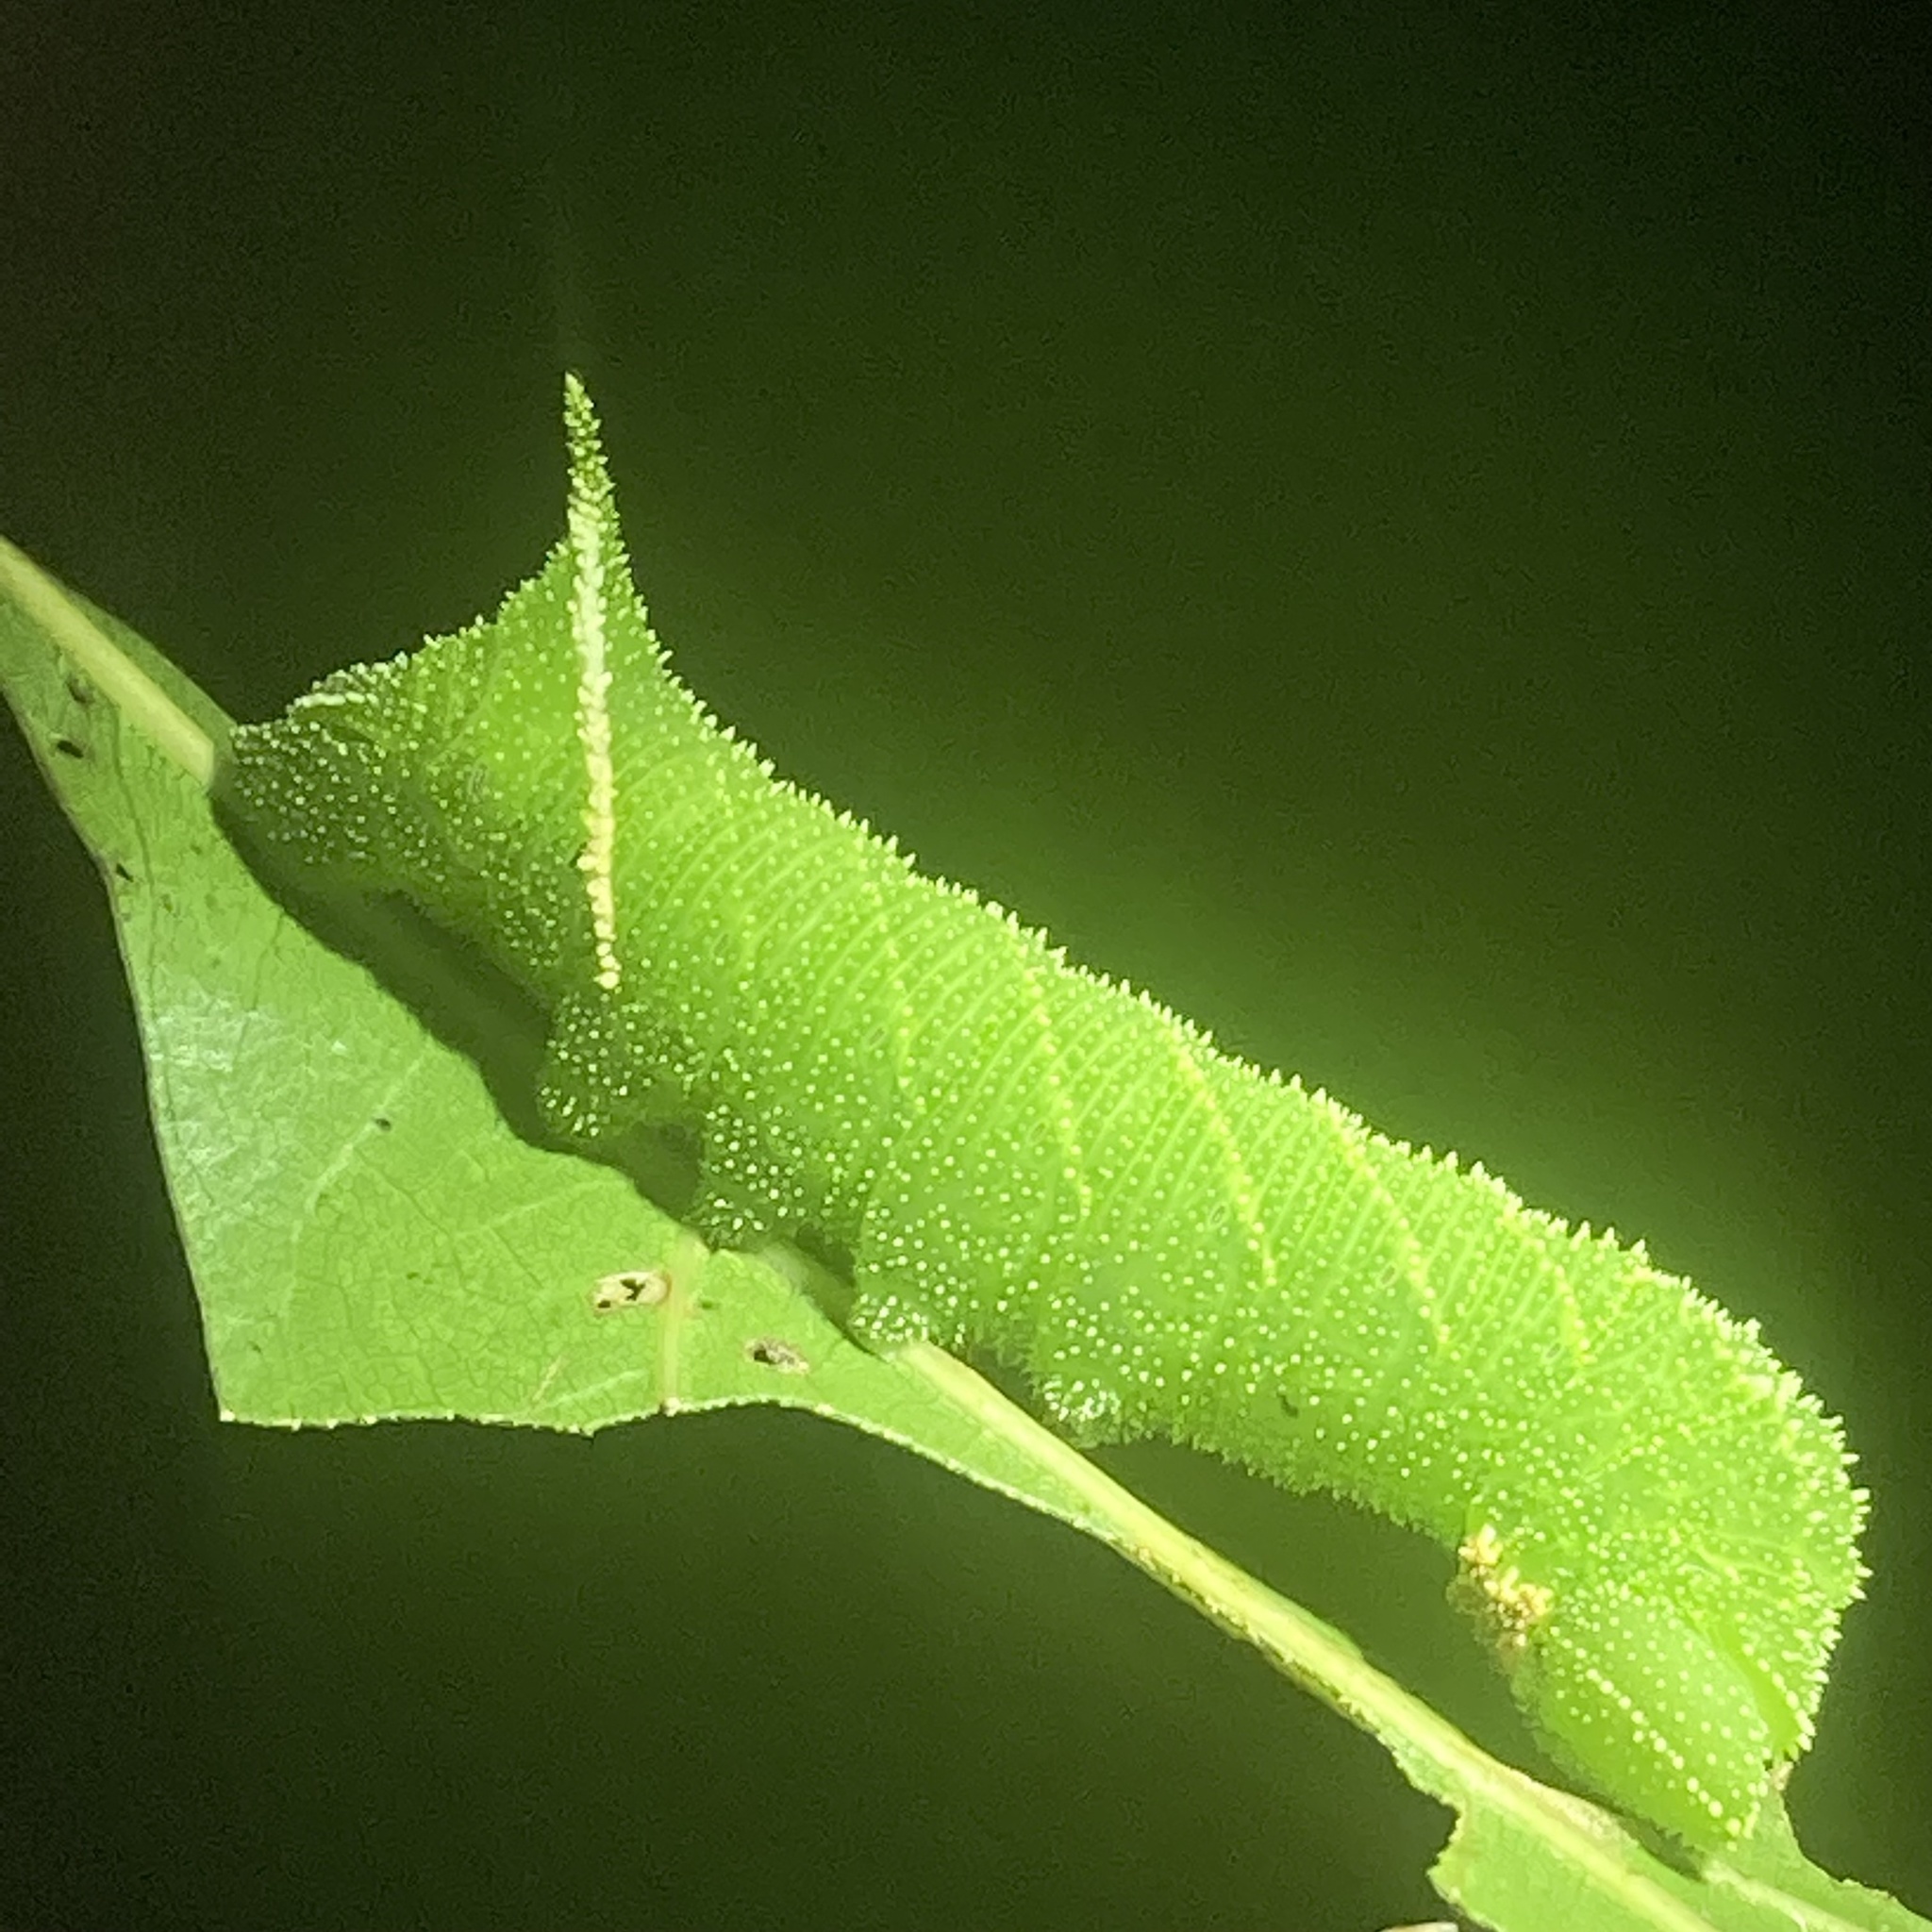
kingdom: Animalia
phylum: Arthropoda
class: Insecta
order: Lepidoptera
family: Sphingidae
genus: Paonias
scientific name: Paonias excaecata
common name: Blind-eyed sphinx
